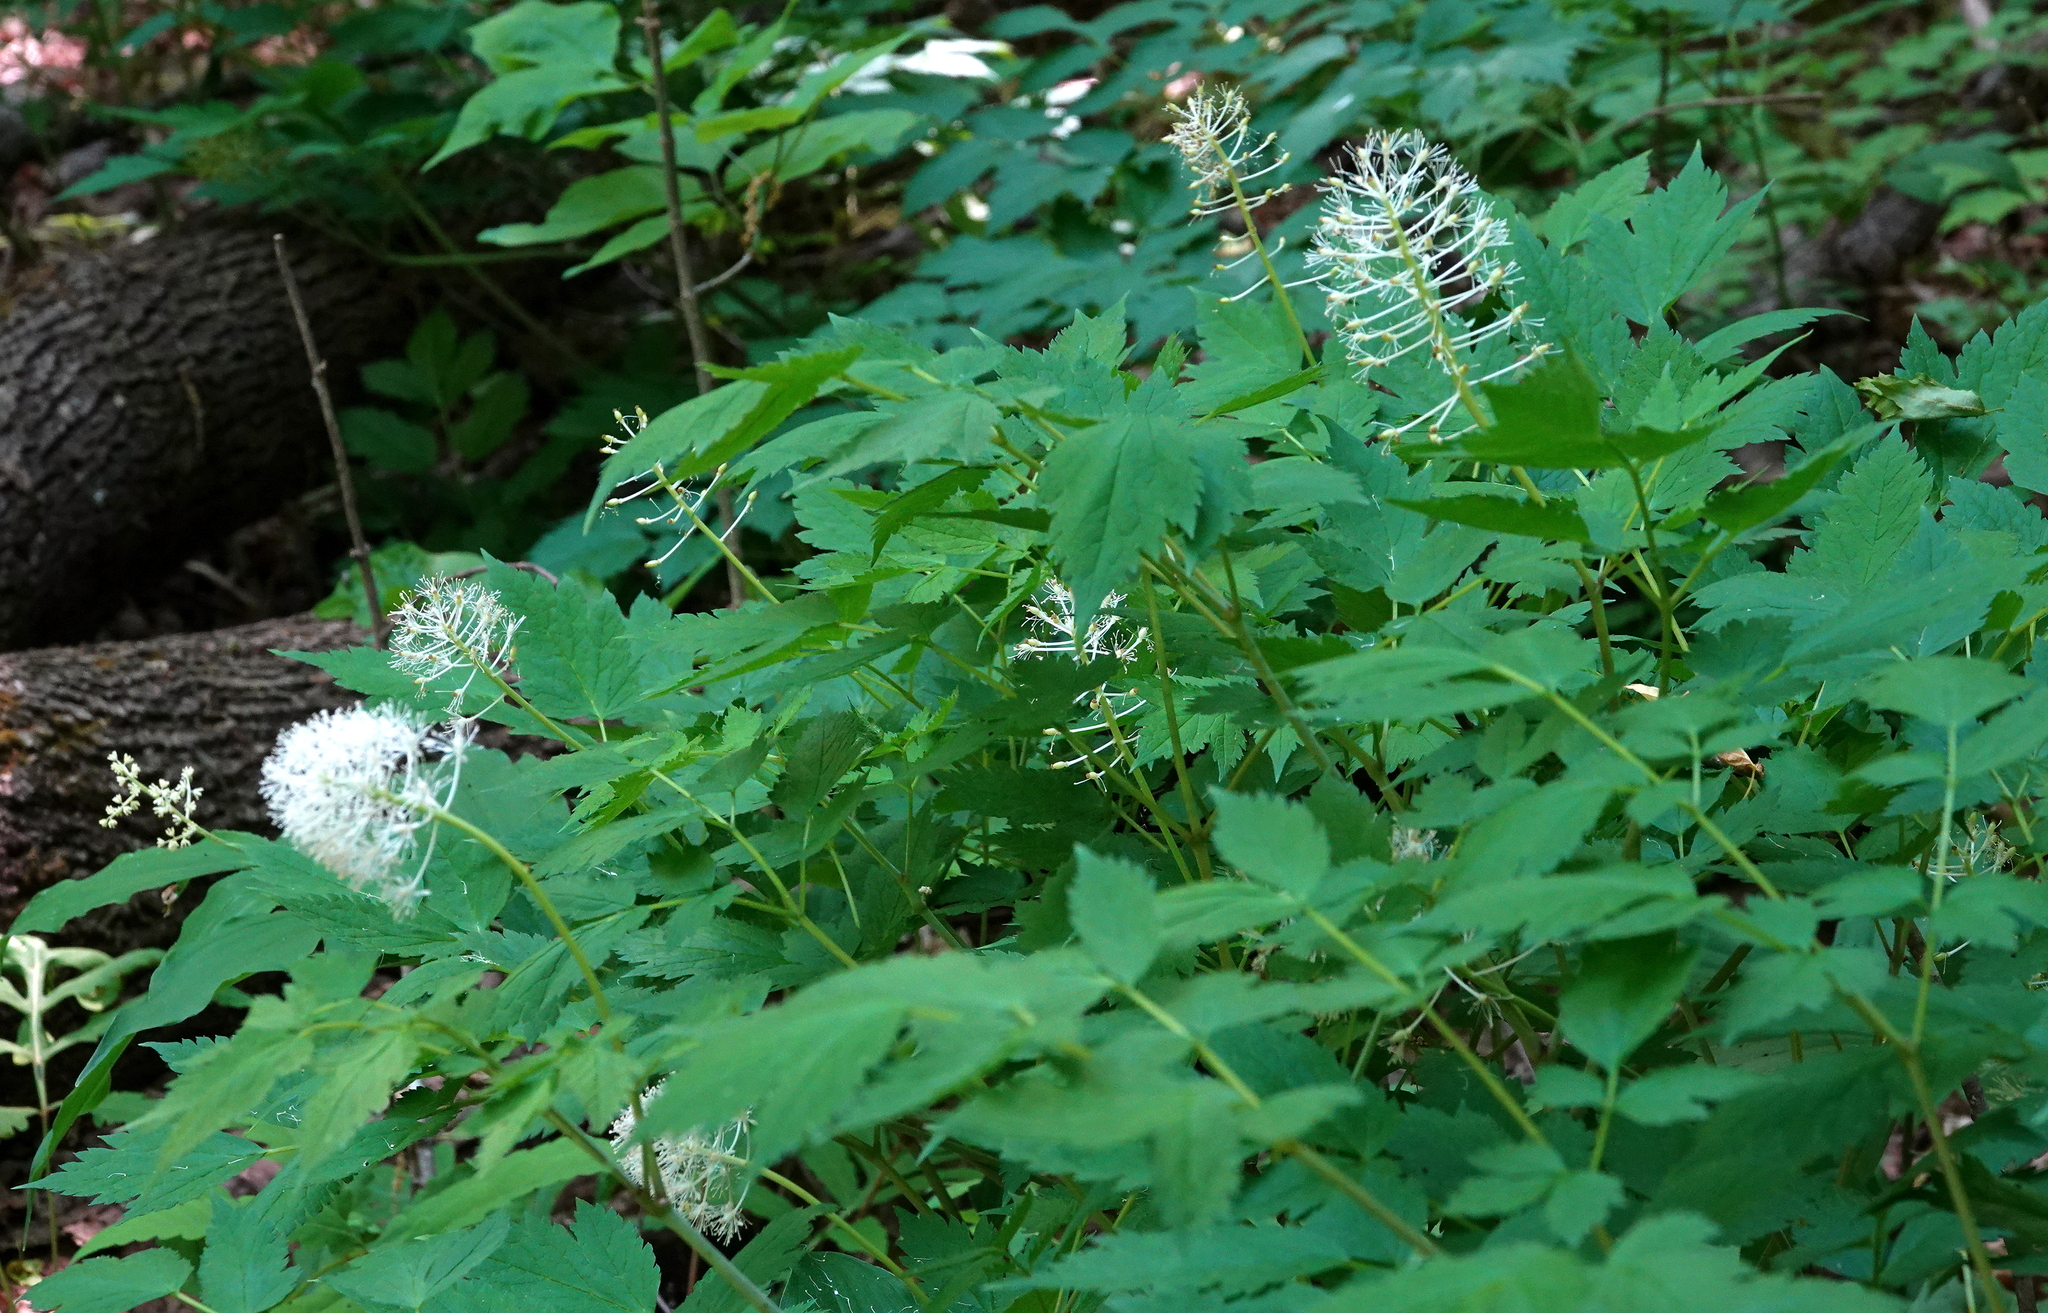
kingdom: Plantae
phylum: Tracheophyta
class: Magnoliopsida
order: Ranunculales
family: Ranunculaceae
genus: Actaea
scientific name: Actaea rubra
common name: Red baneberry
